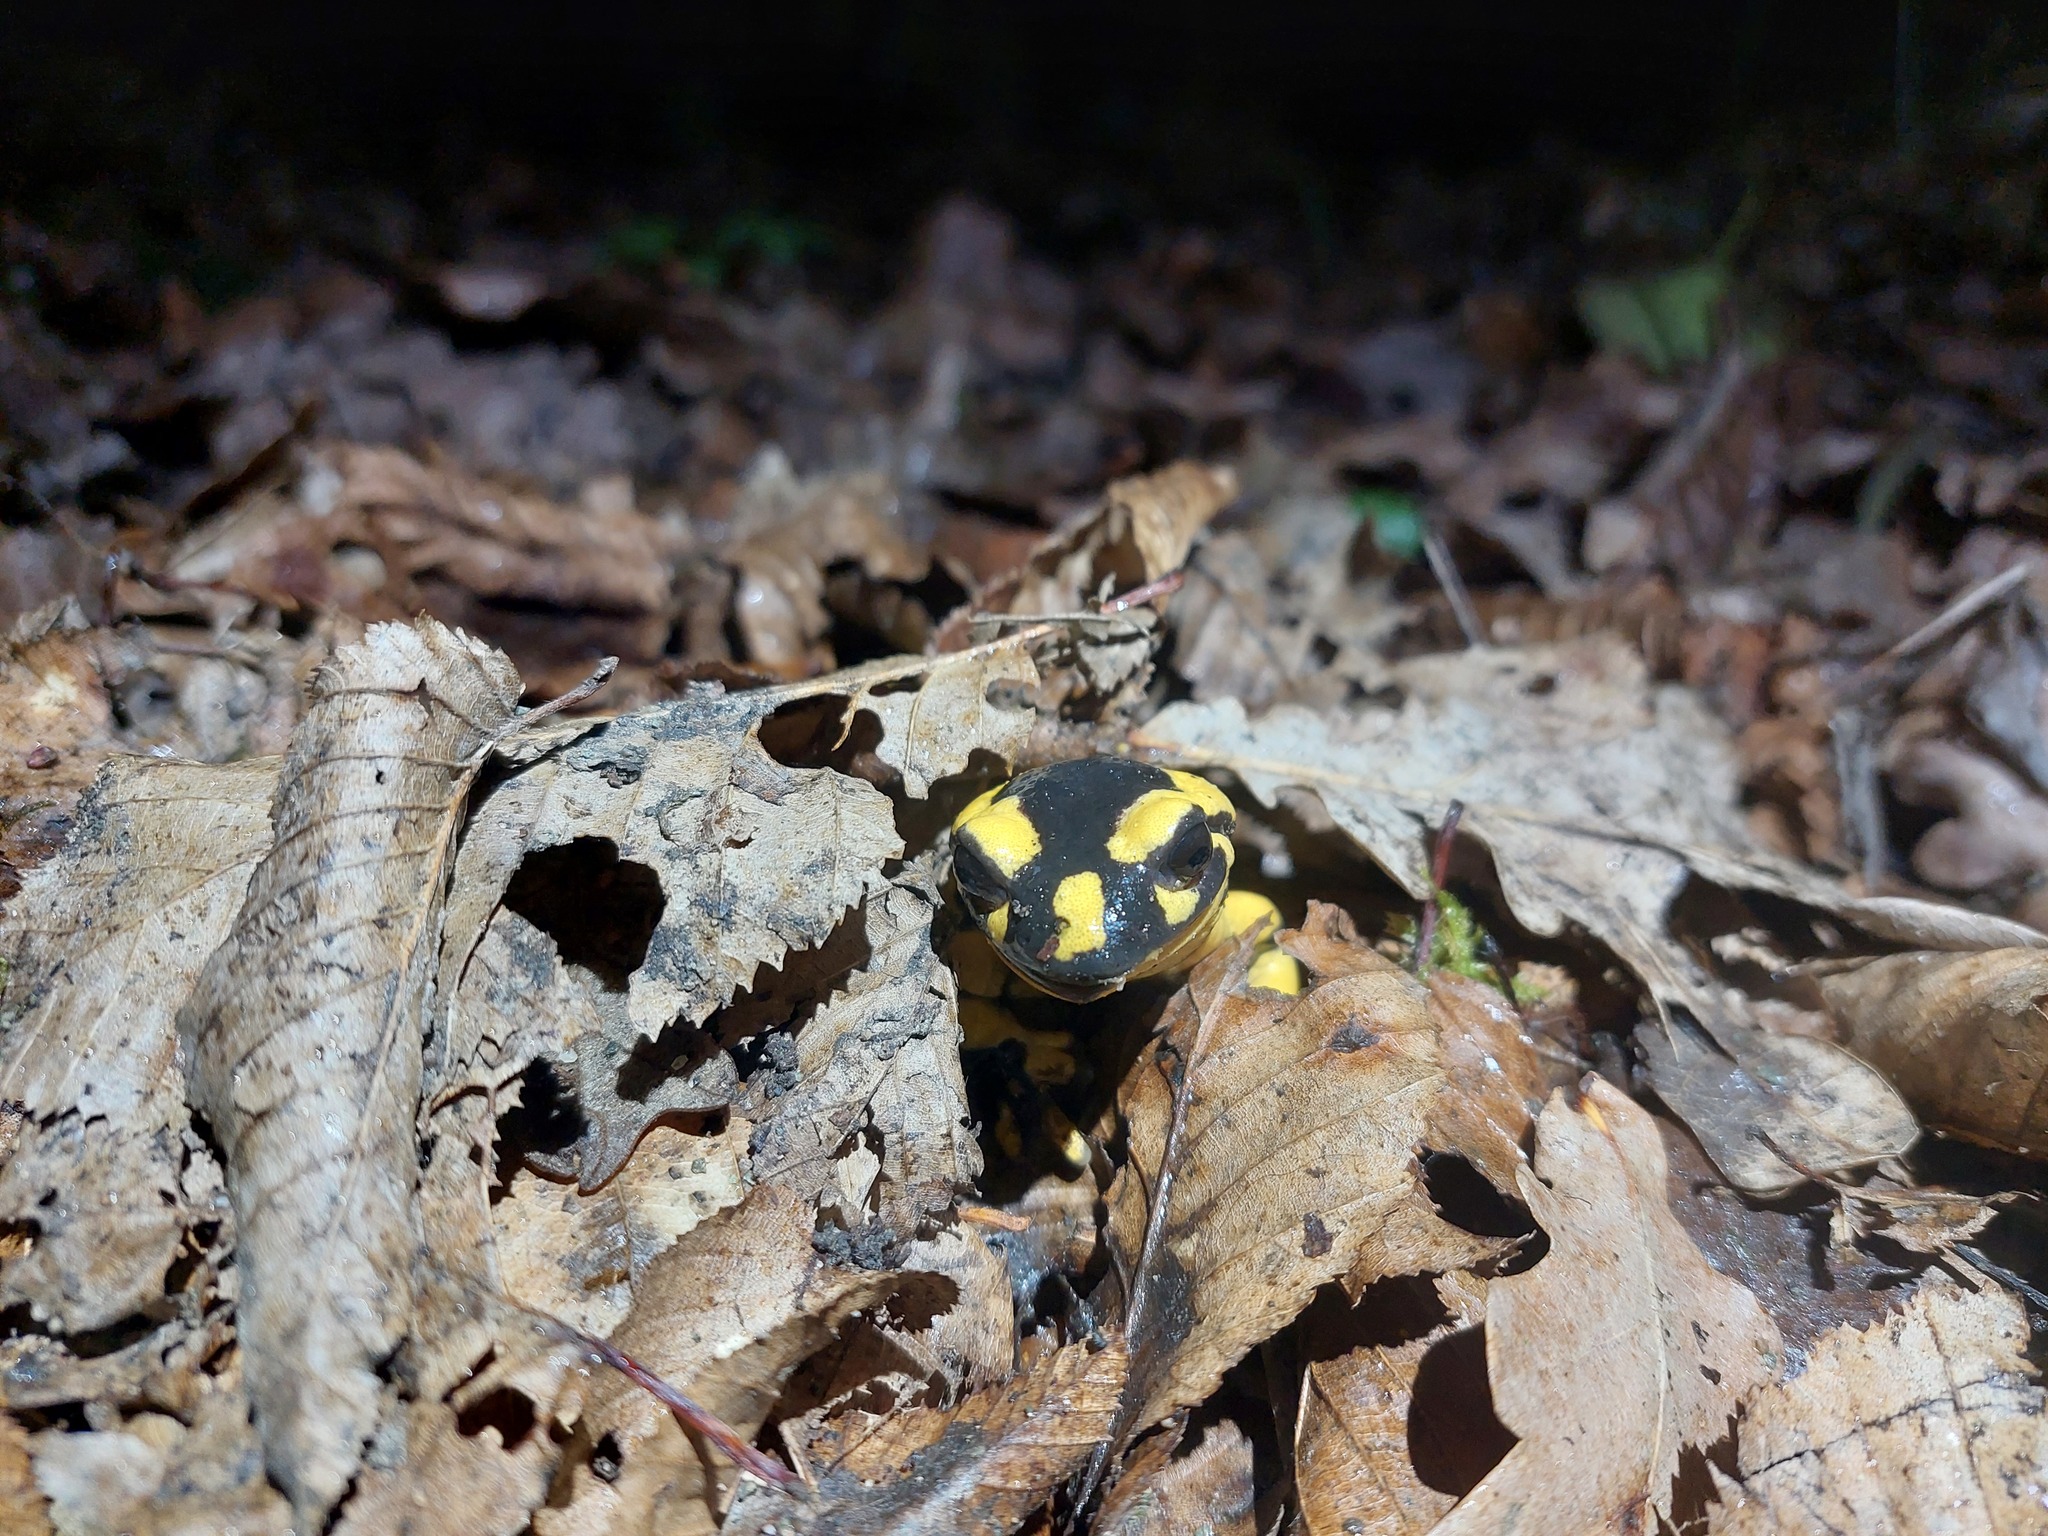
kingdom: Animalia
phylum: Chordata
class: Amphibia
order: Caudata
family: Salamandridae
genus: Salamandra
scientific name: Salamandra salamandra
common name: Fire salamander
